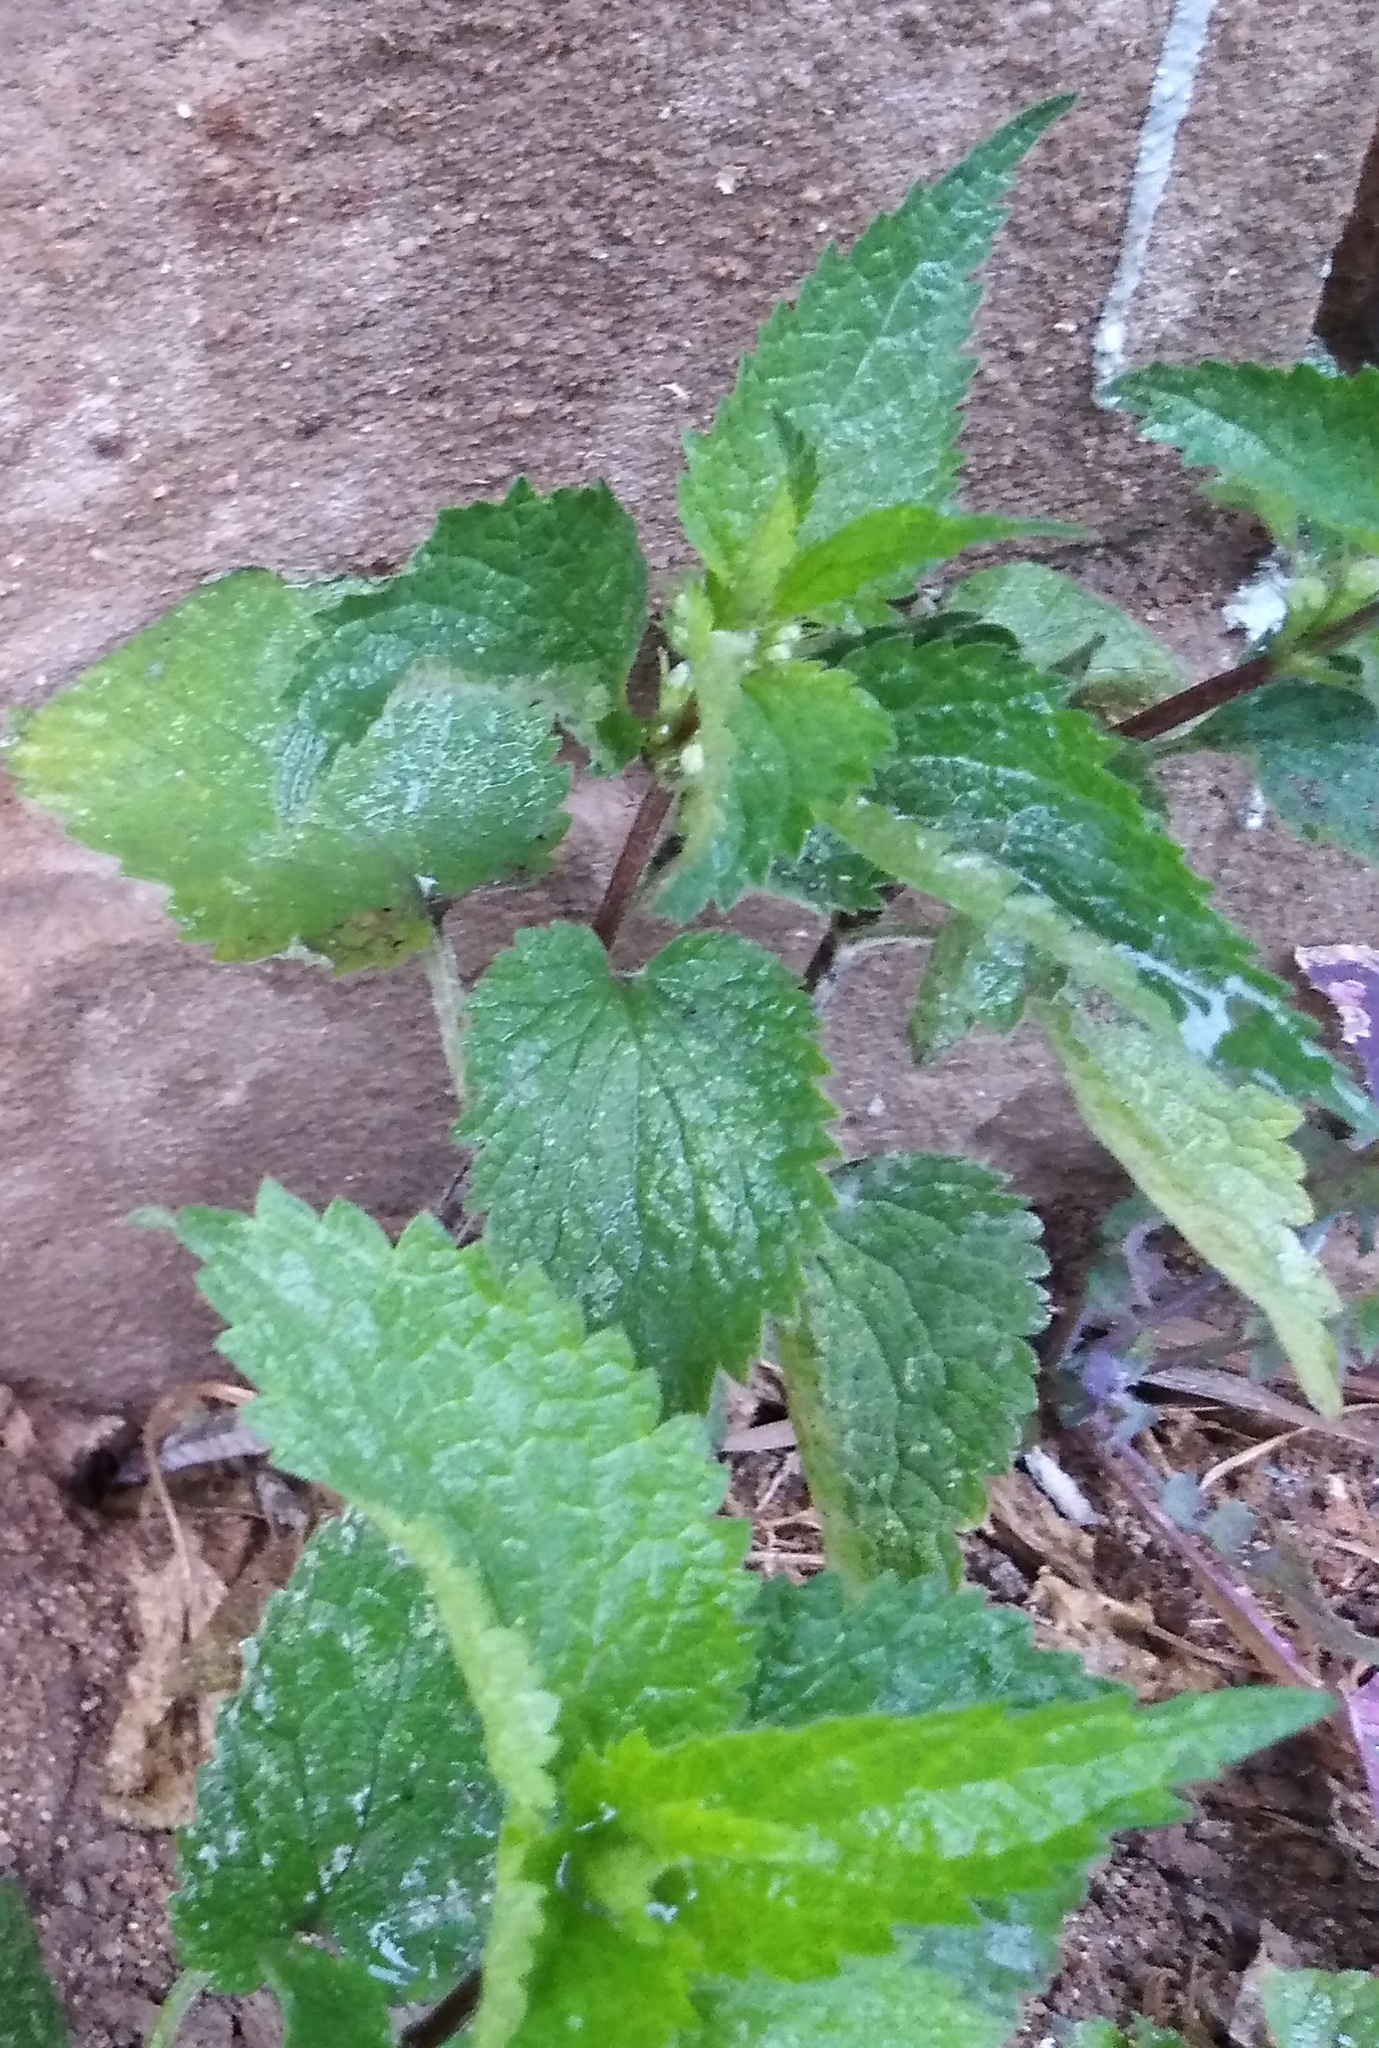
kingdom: Plantae
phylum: Tracheophyta
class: Magnoliopsida
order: Lamiales
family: Lamiaceae
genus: Lamium
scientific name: Lamium album
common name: White dead-nettle
